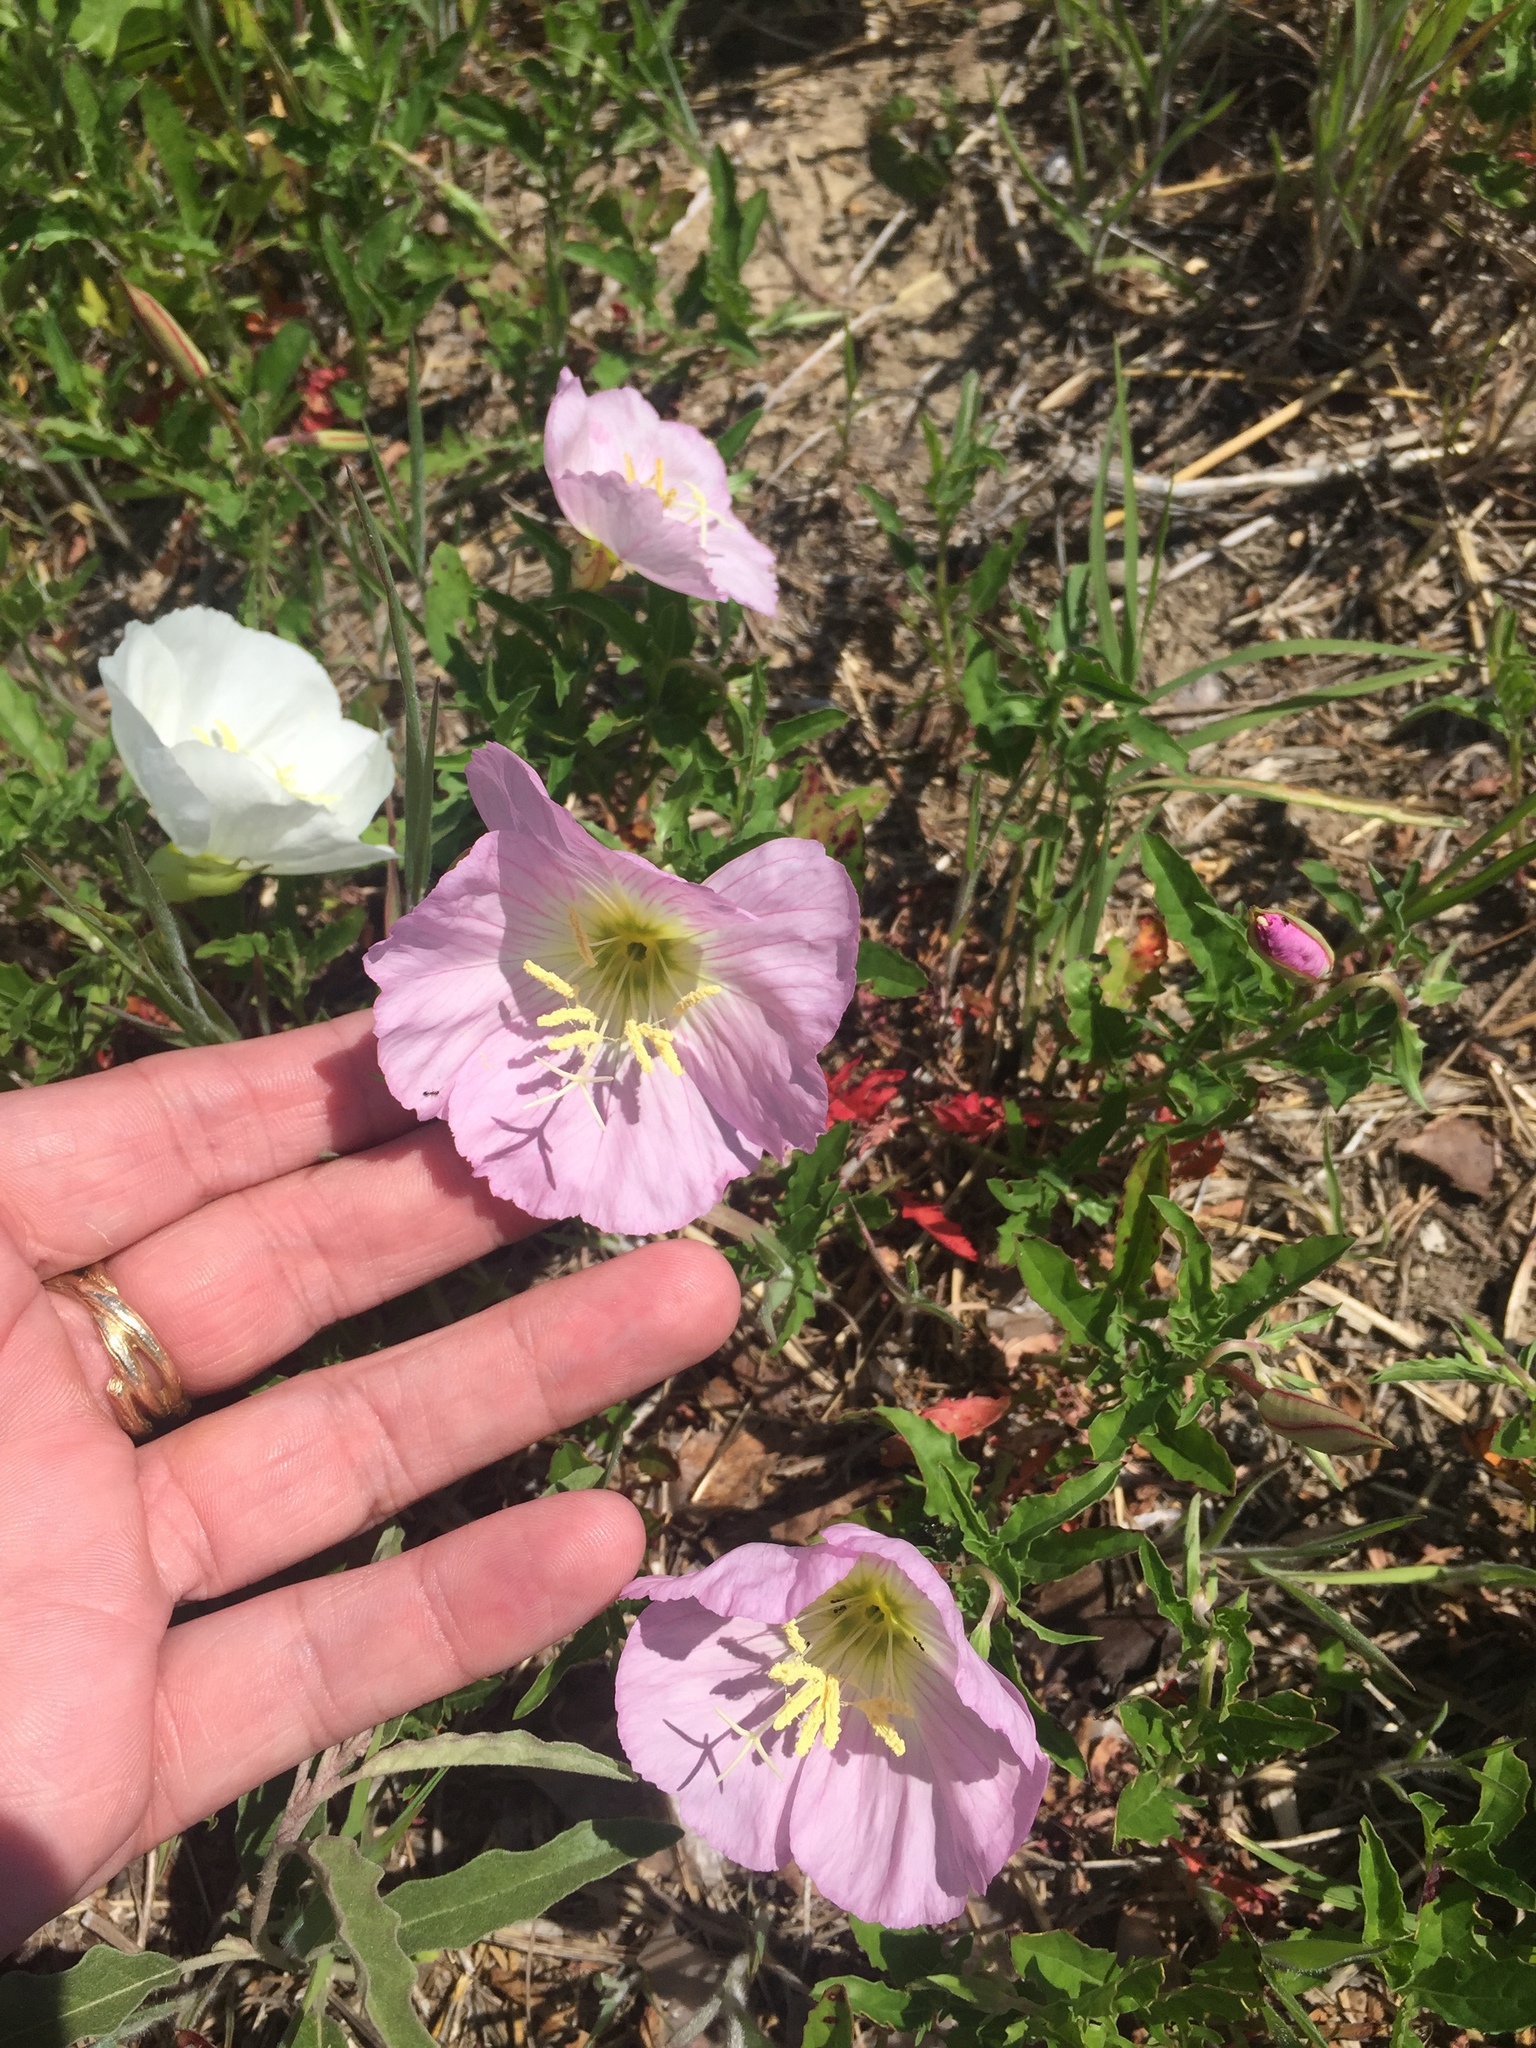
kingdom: Plantae
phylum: Tracheophyta
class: Magnoliopsida
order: Myrtales
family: Onagraceae
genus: Oenothera
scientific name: Oenothera speciosa
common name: White evening-primrose
